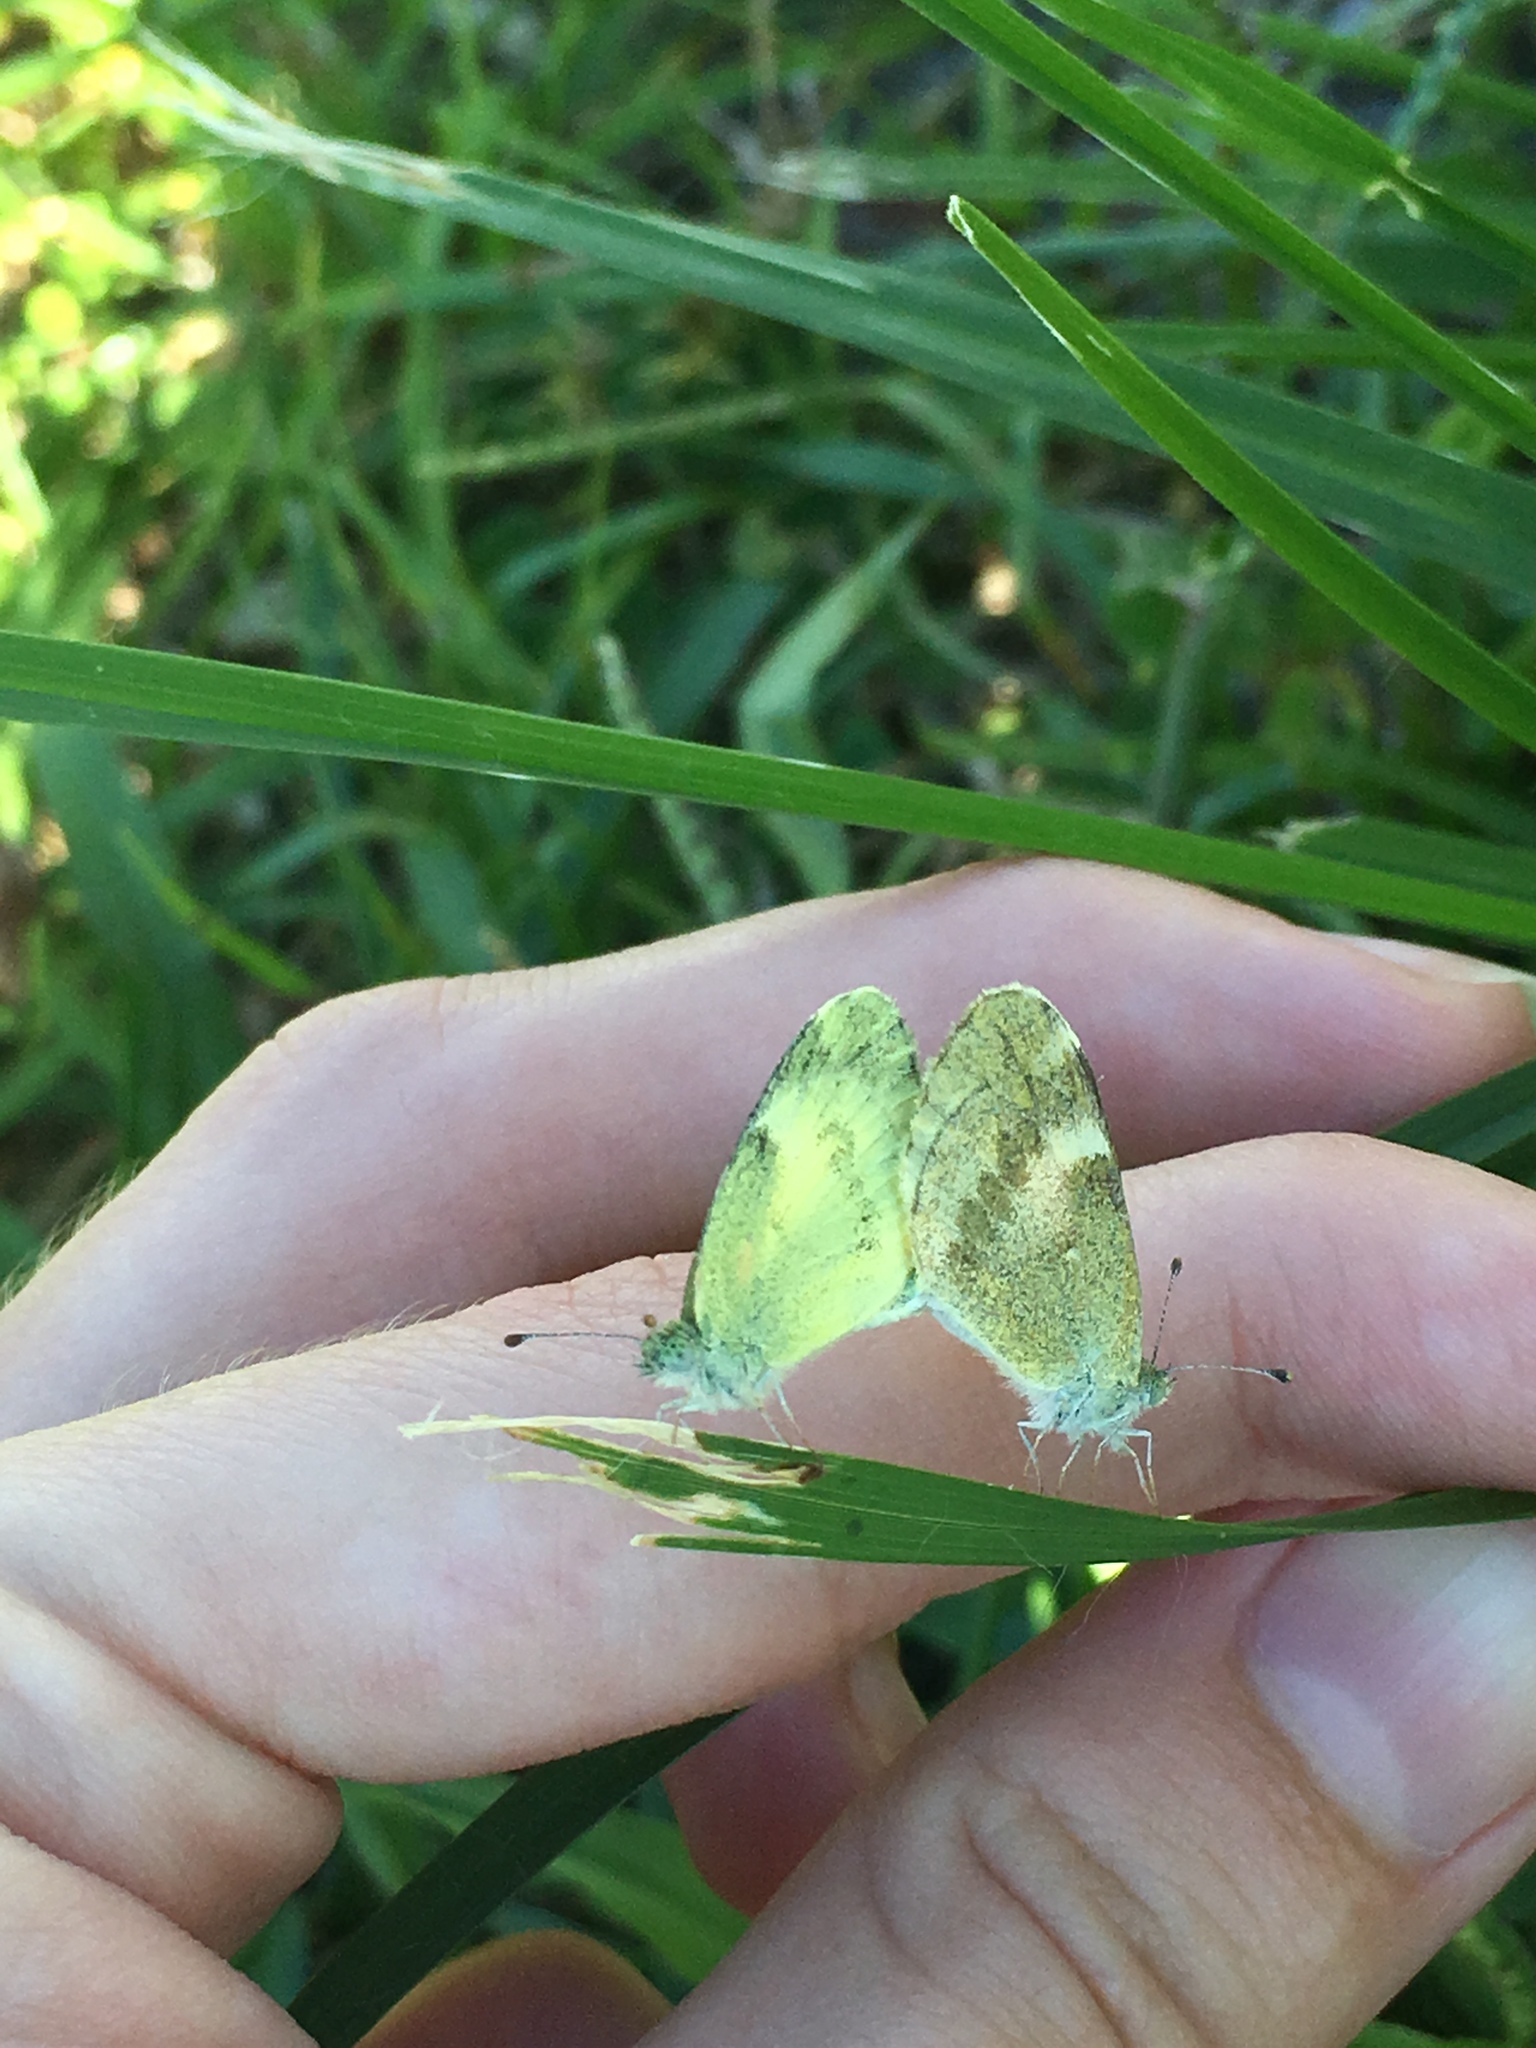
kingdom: Animalia
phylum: Arthropoda
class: Insecta
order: Lepidoptera
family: Pieridae
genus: Nathalis
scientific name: Nathalis iole
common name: Dainty sulphur
